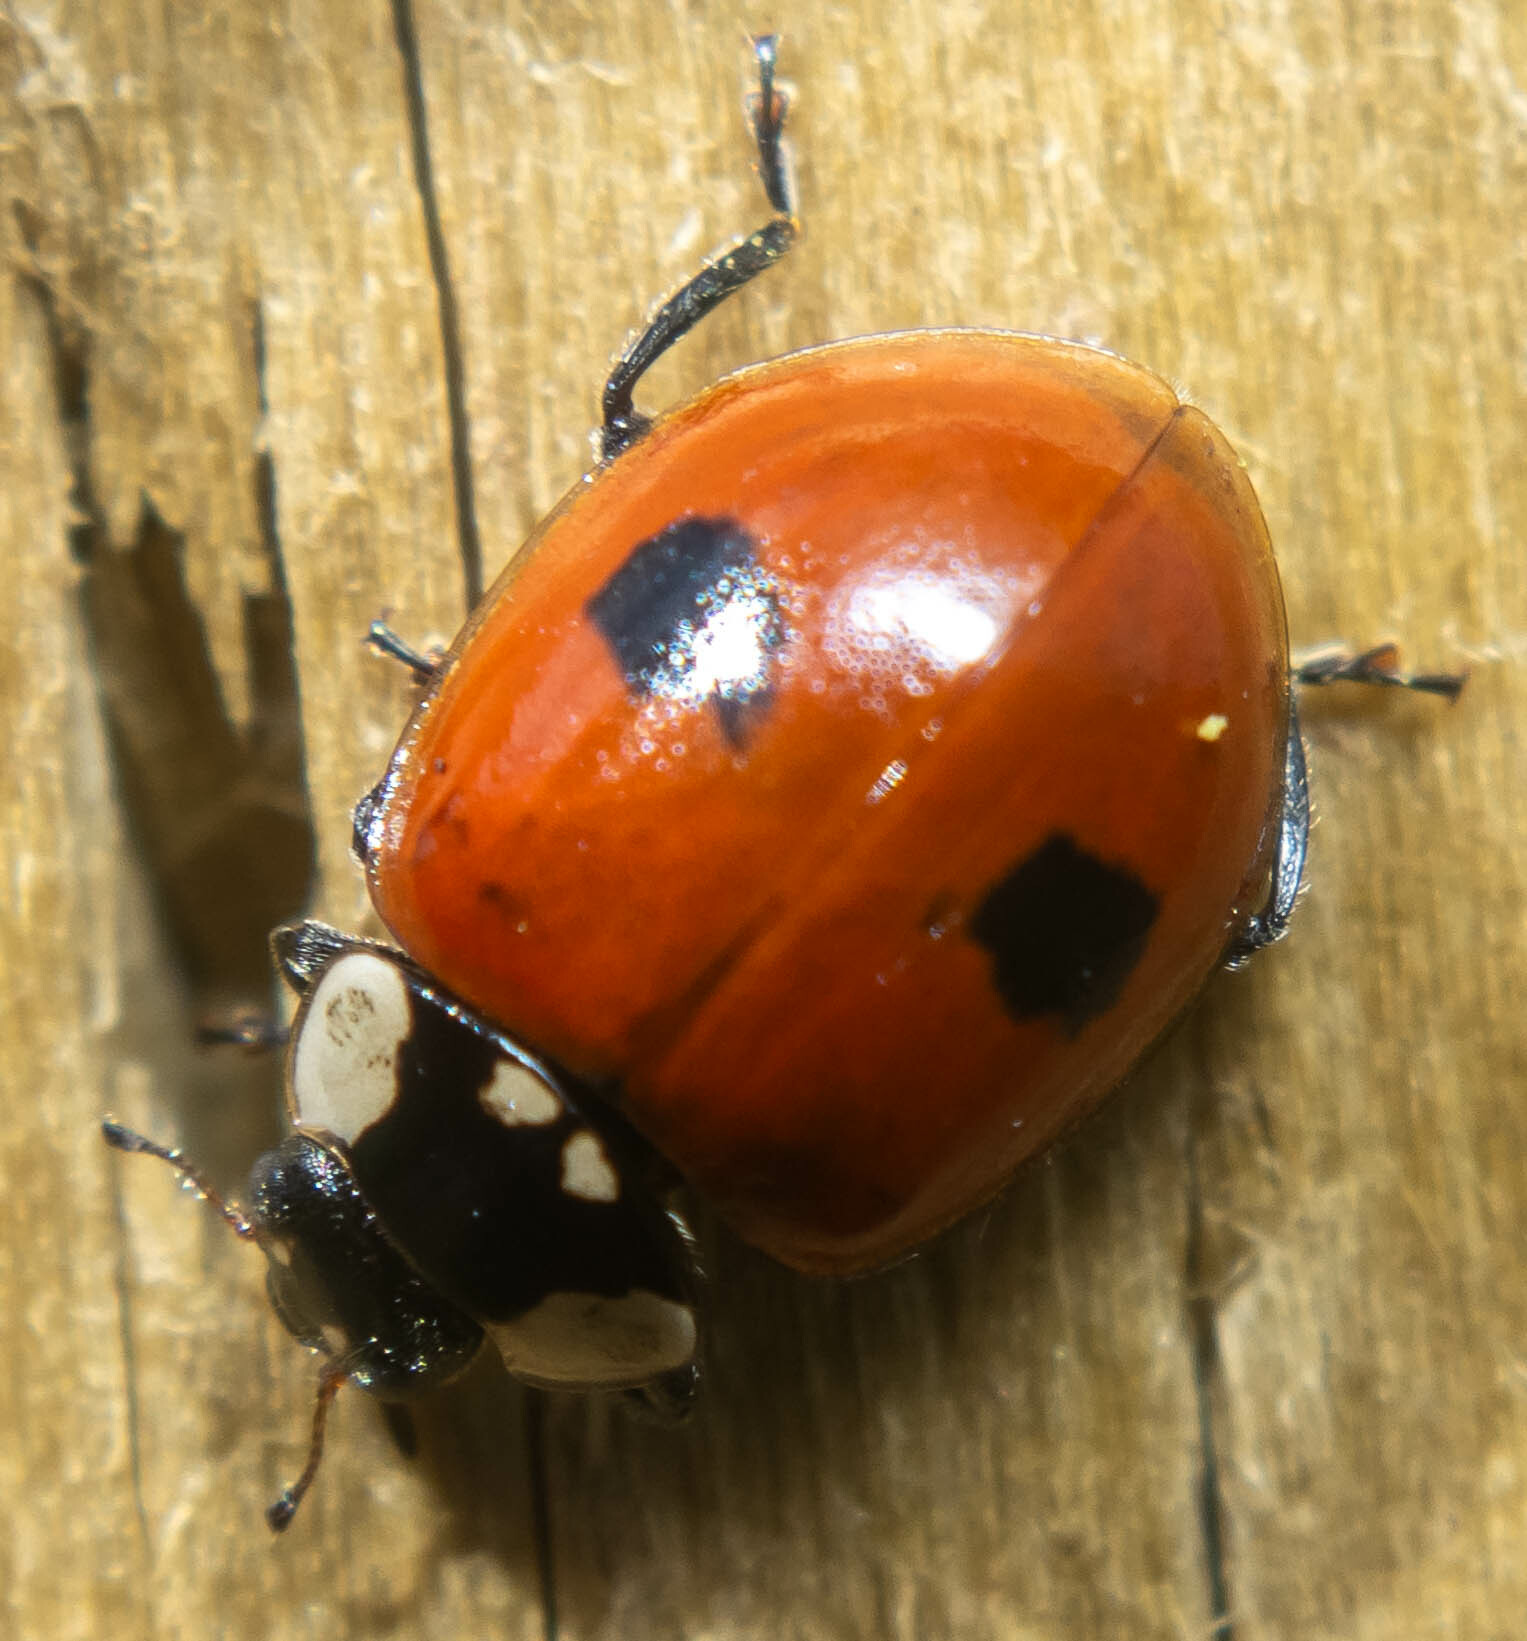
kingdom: Animalia
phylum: Arthropoda
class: Insecta
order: Coleoptera
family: Coccinellidae
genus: Adalia
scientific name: Adalia bipunctata
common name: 2-spot ladybird
